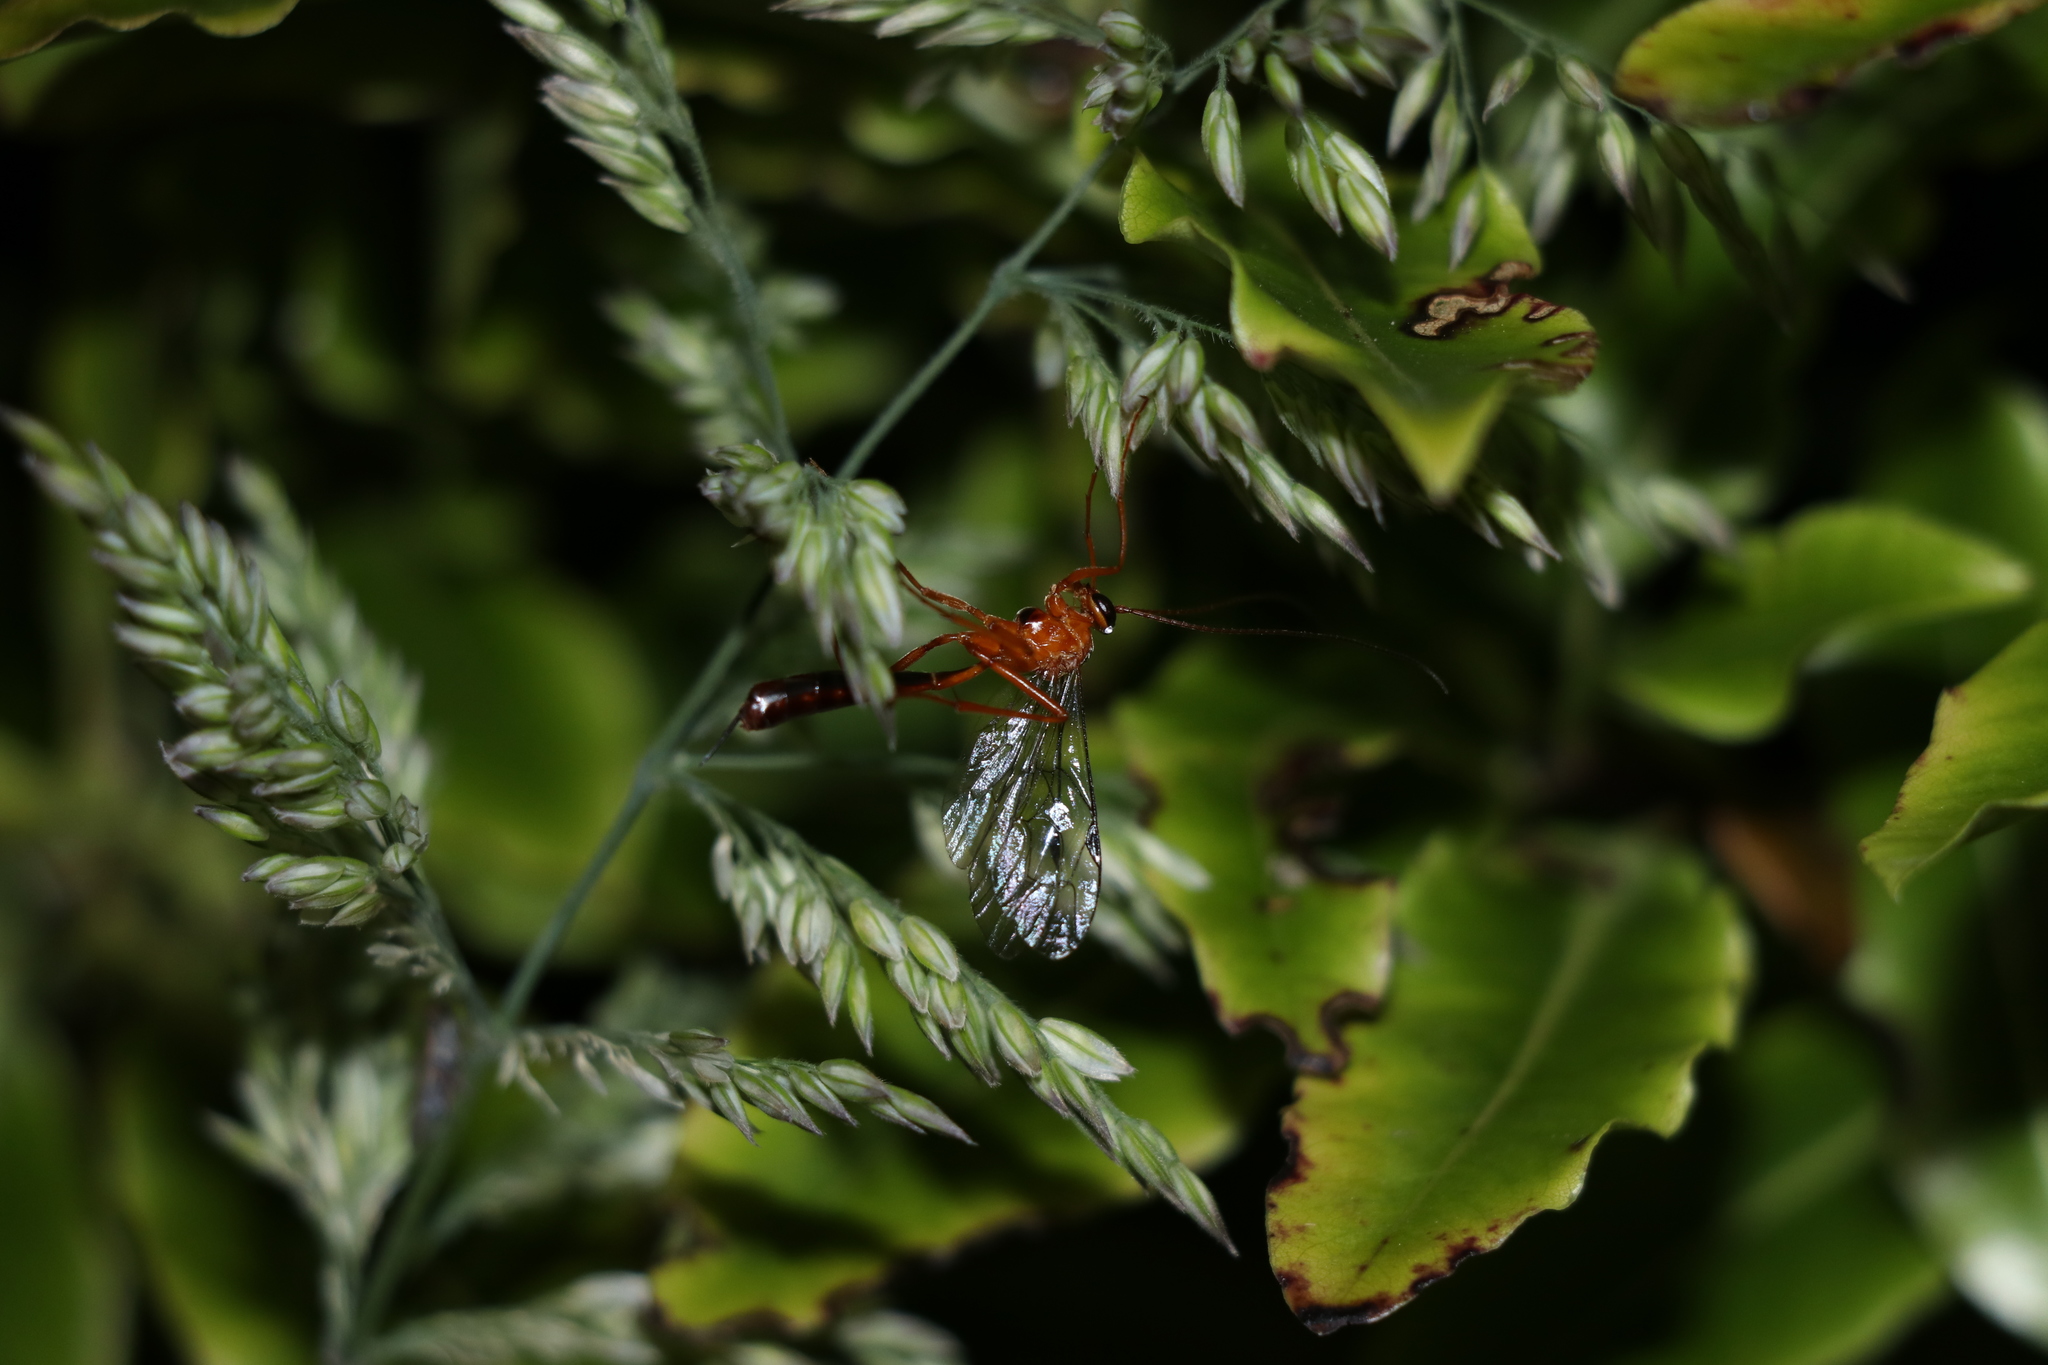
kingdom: Animalia
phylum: Arthropoda
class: Insecta
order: Hymenoptera
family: Ichneumonidae
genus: Netelia
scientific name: Netelia ephippiata
